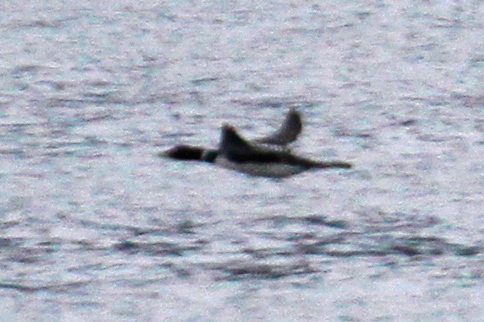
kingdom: Animalia
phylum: Chordata
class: Aves
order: Gaviiformes
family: Gaviidae
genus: Gavia
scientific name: Gavia adamsii
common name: Yellow-billed loon
